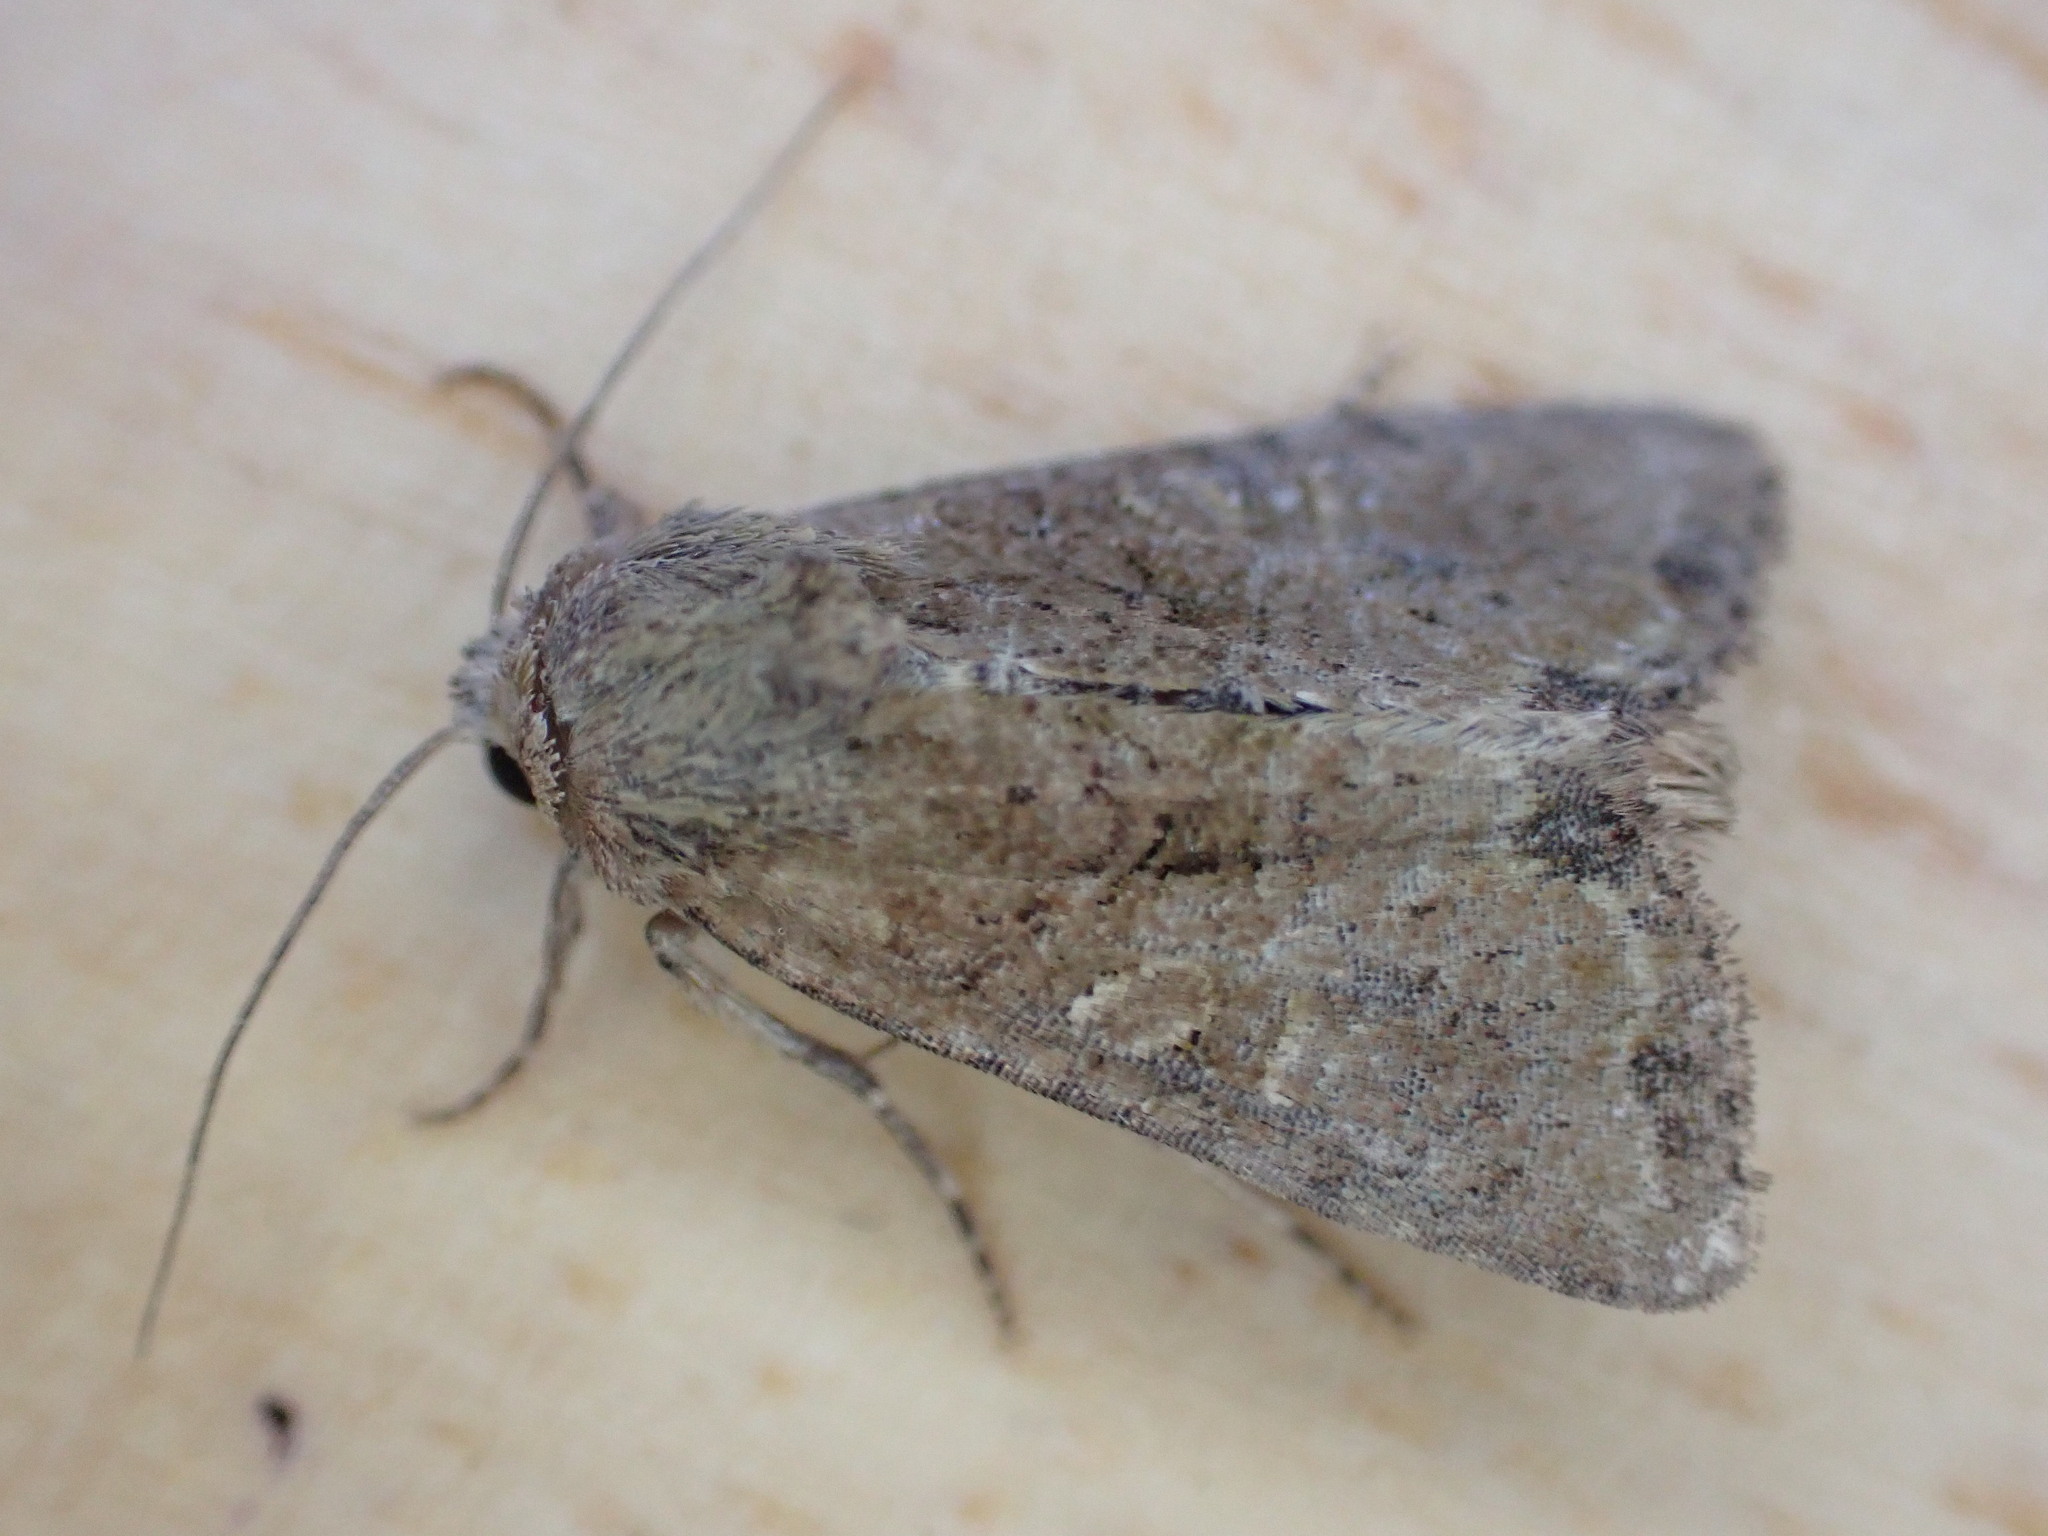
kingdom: Animalia
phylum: Arthropoda
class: Insecta
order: Lepidoptera
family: Noctuidae
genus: Mesoligia
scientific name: Mesoligia furuncula
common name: Cloaked minor
